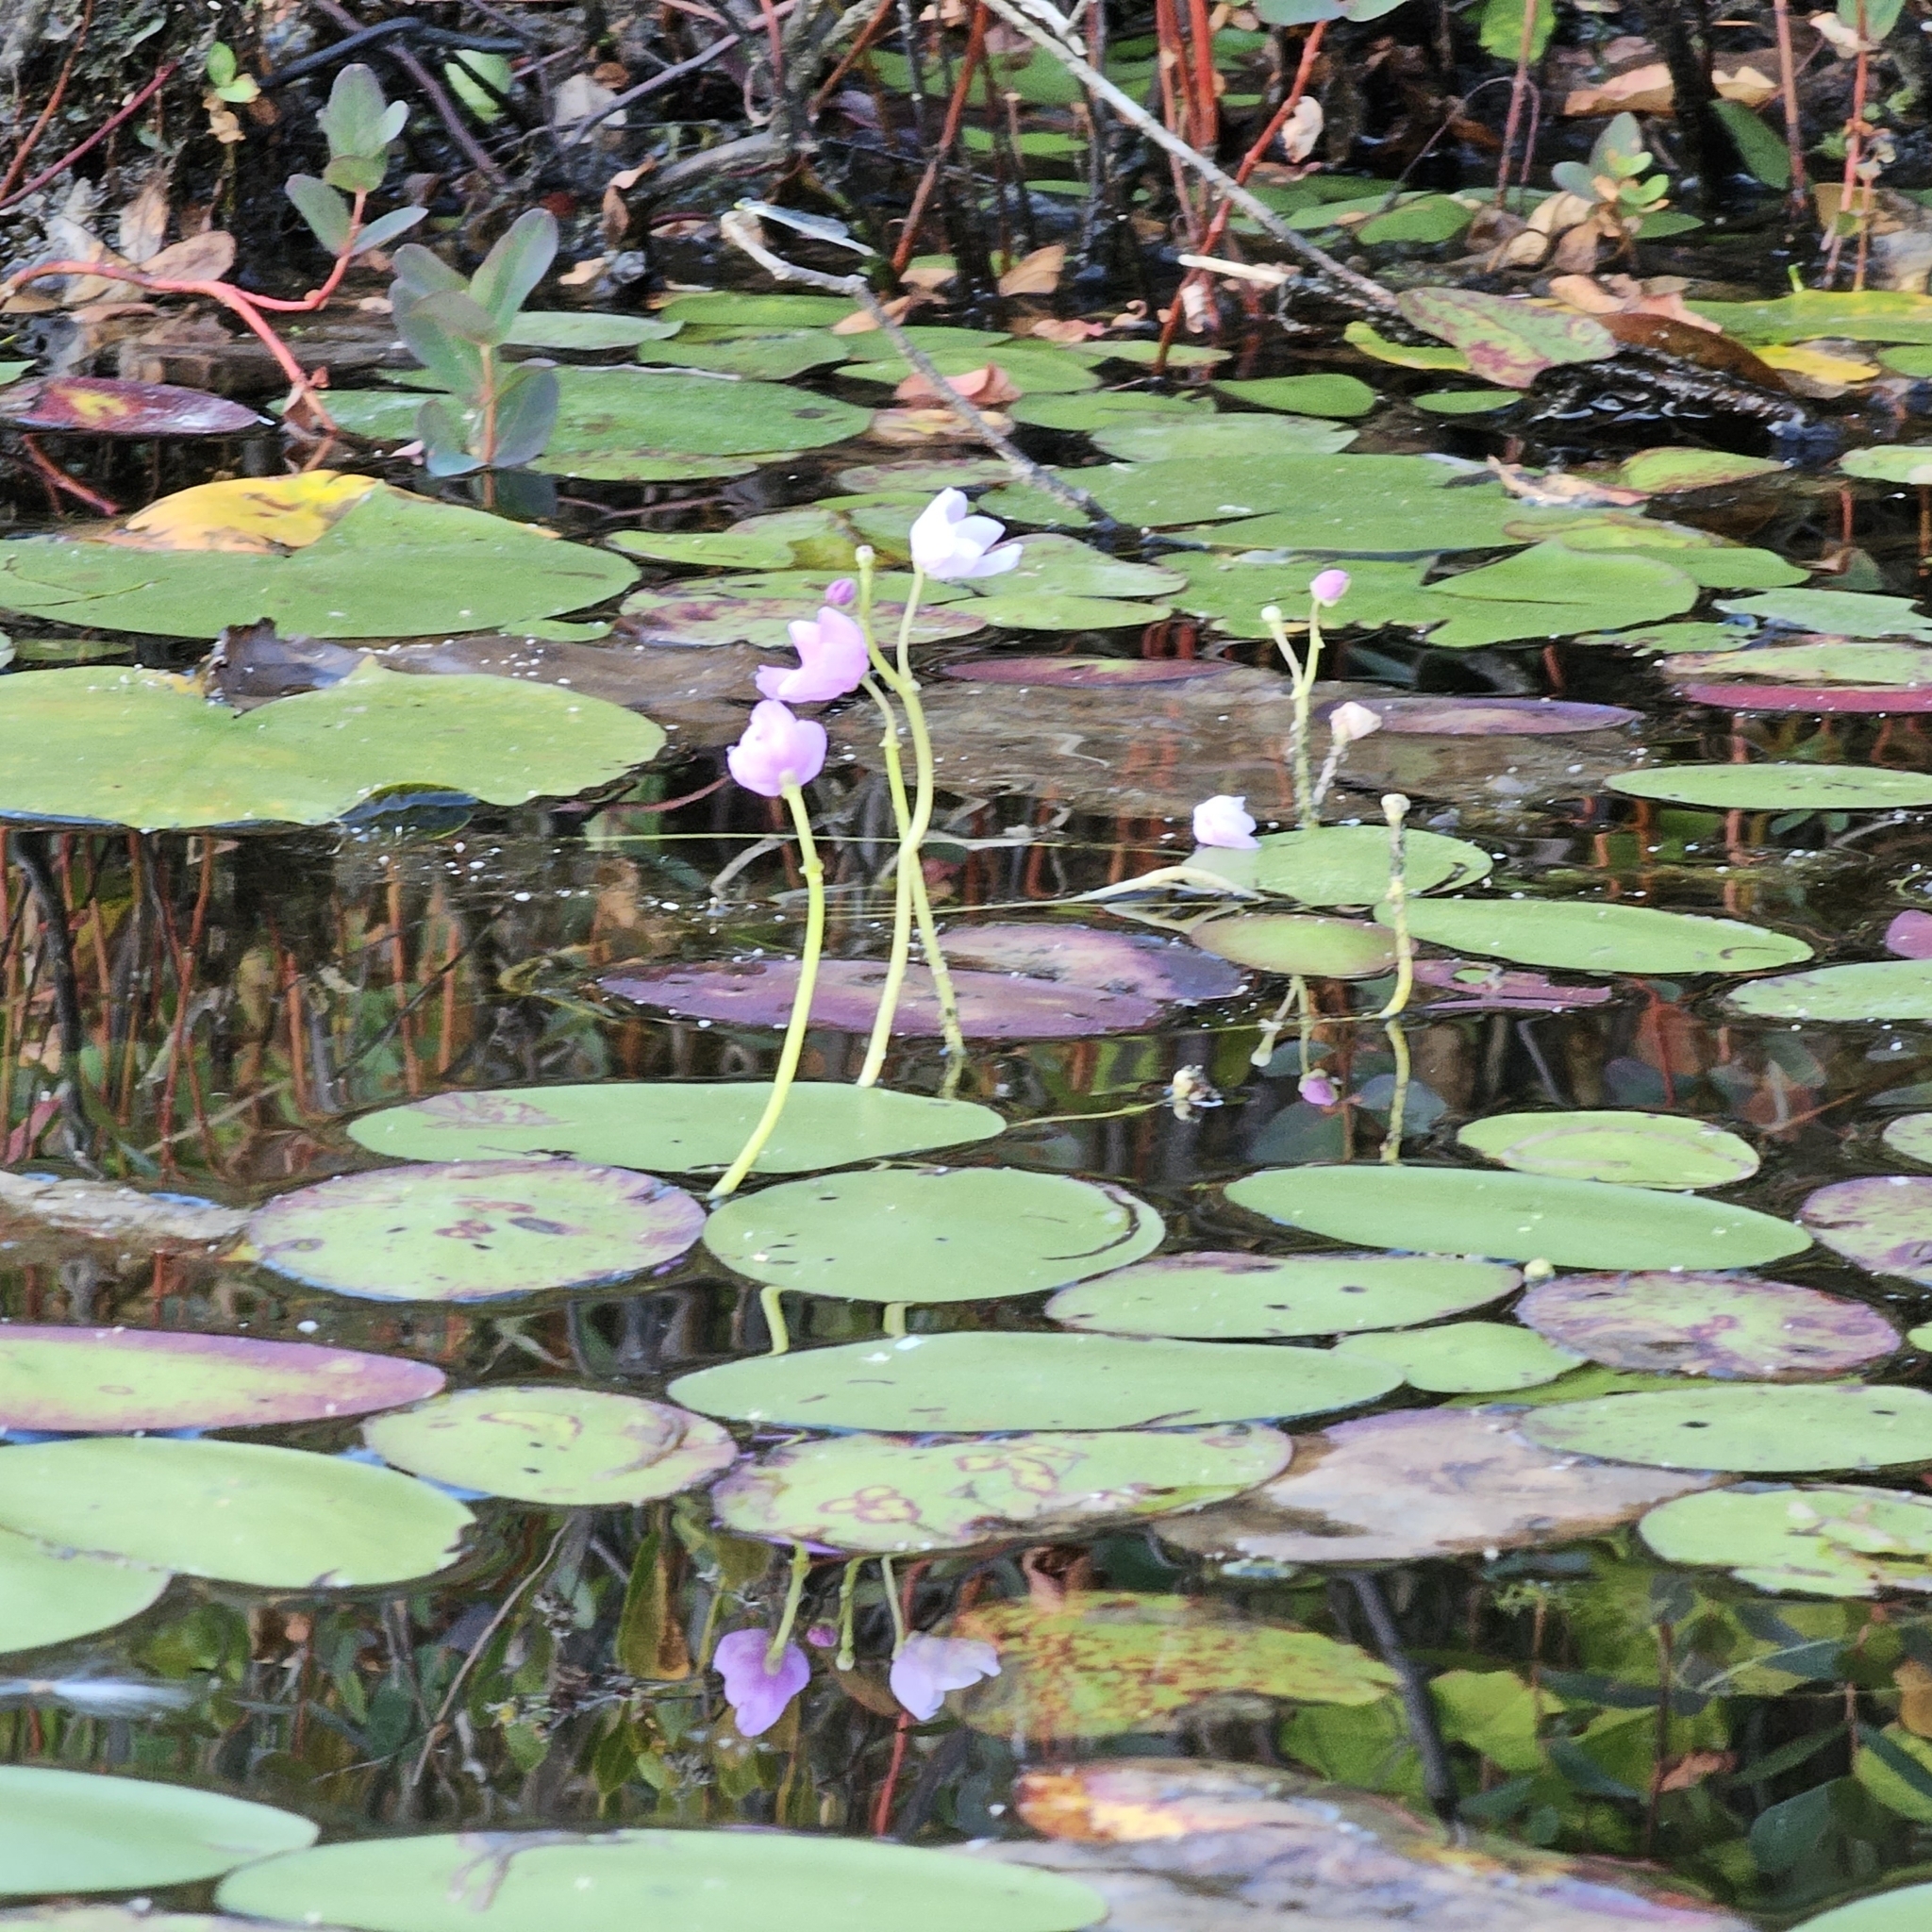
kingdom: Plantae
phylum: Tracheophyta
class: Magnoliopsida
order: Lamiales
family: Lentibulariaceae
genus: Utricularia
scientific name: Utricularia purpurea
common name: Eastern purple bladderwort
